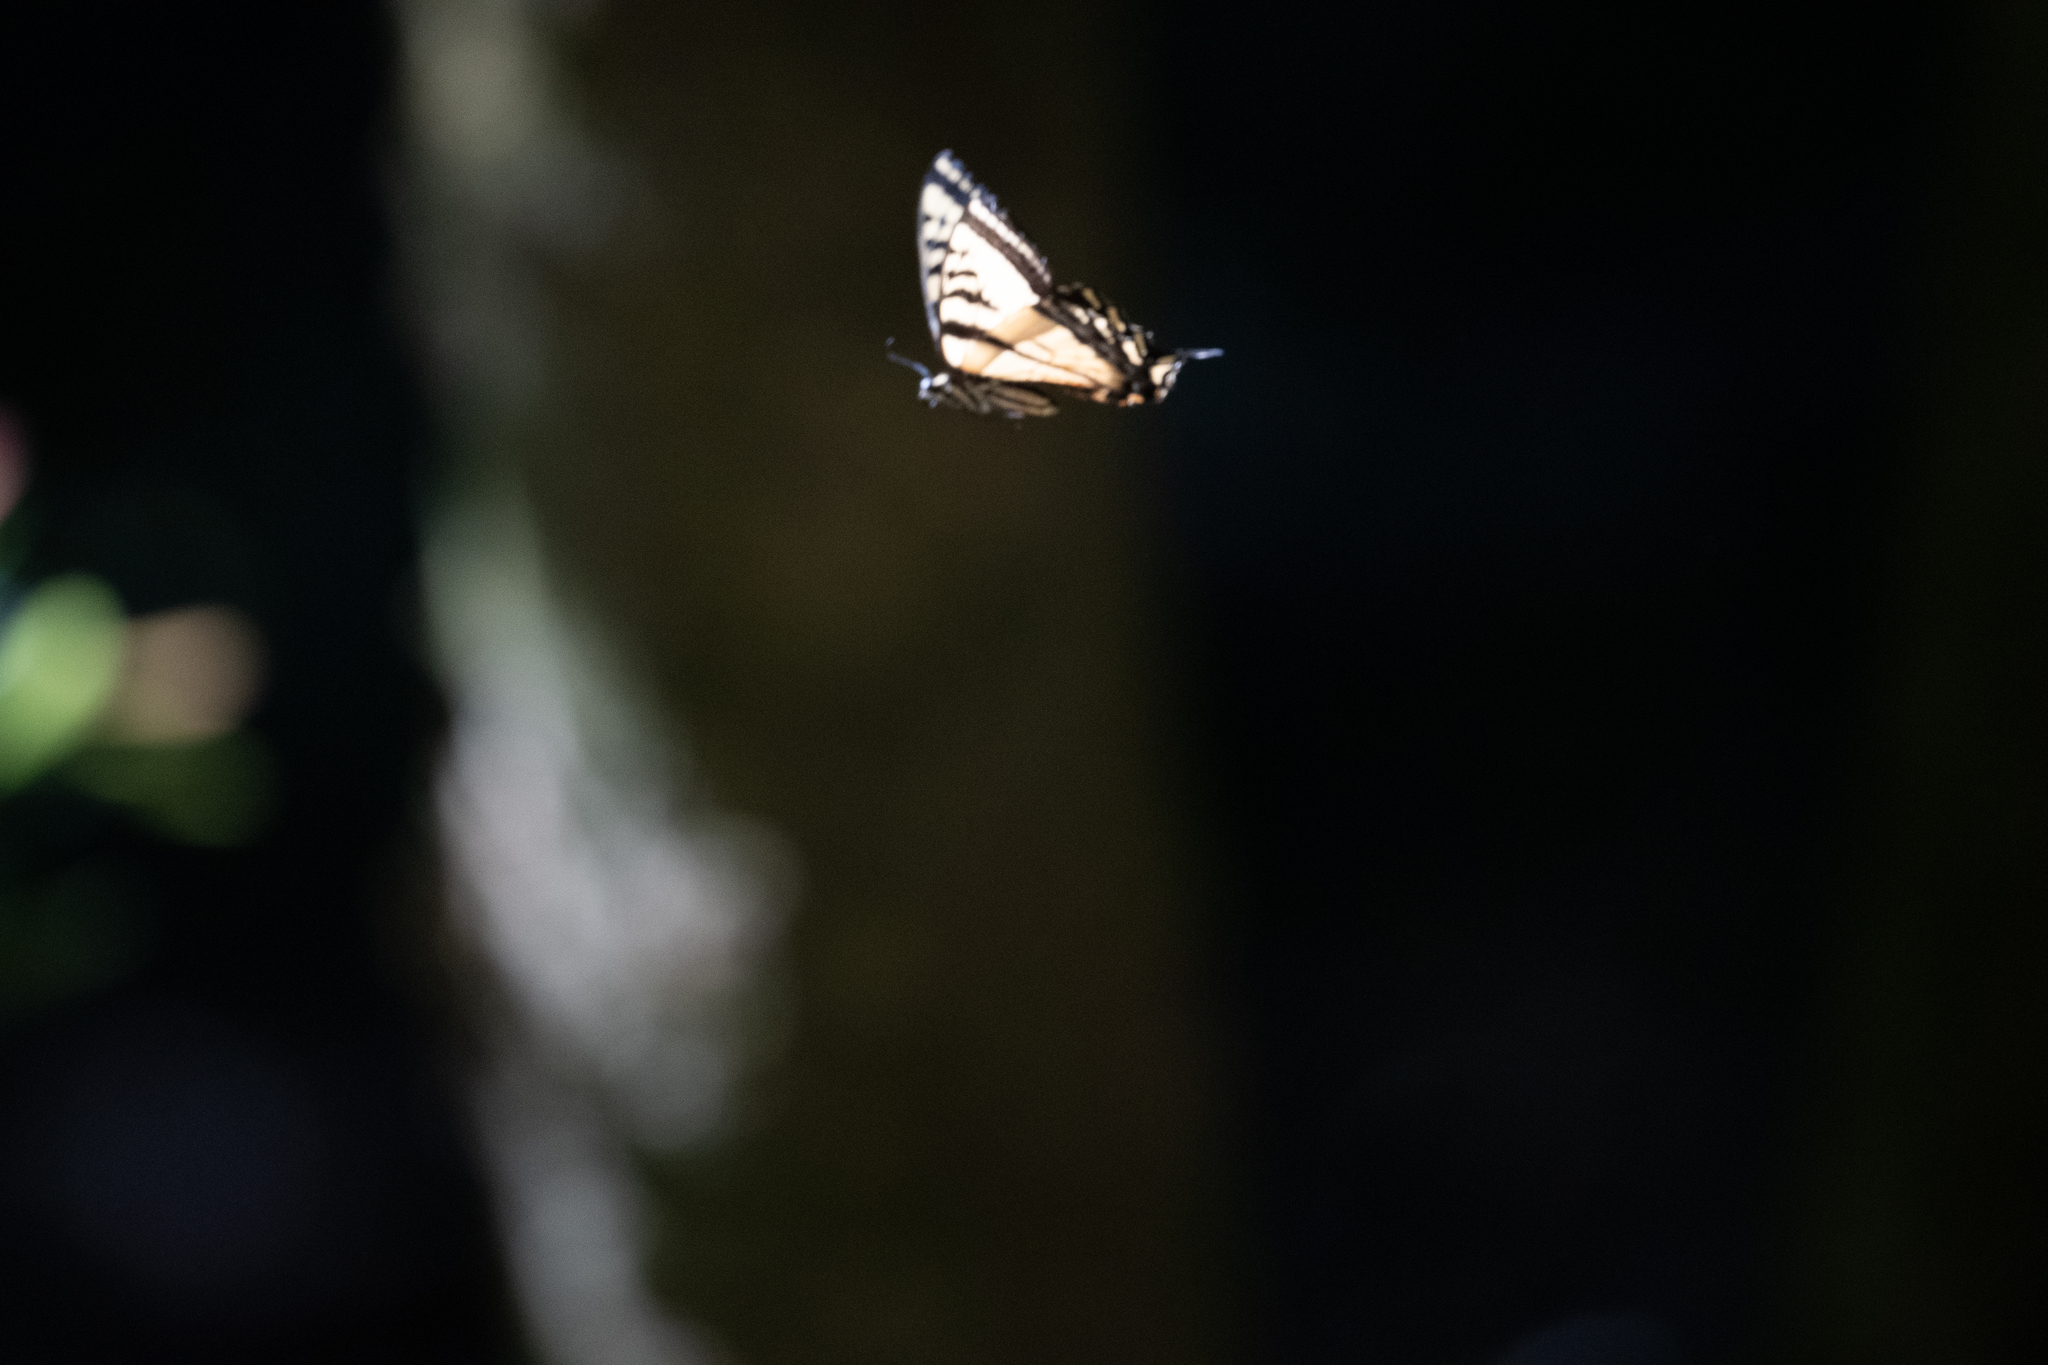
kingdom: Animalia
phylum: Arthropoda
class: Insecta
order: Lepidoptera
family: Papilionidae
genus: Papilio
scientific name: Papilio rutulus
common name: Western tiger swallowtail
